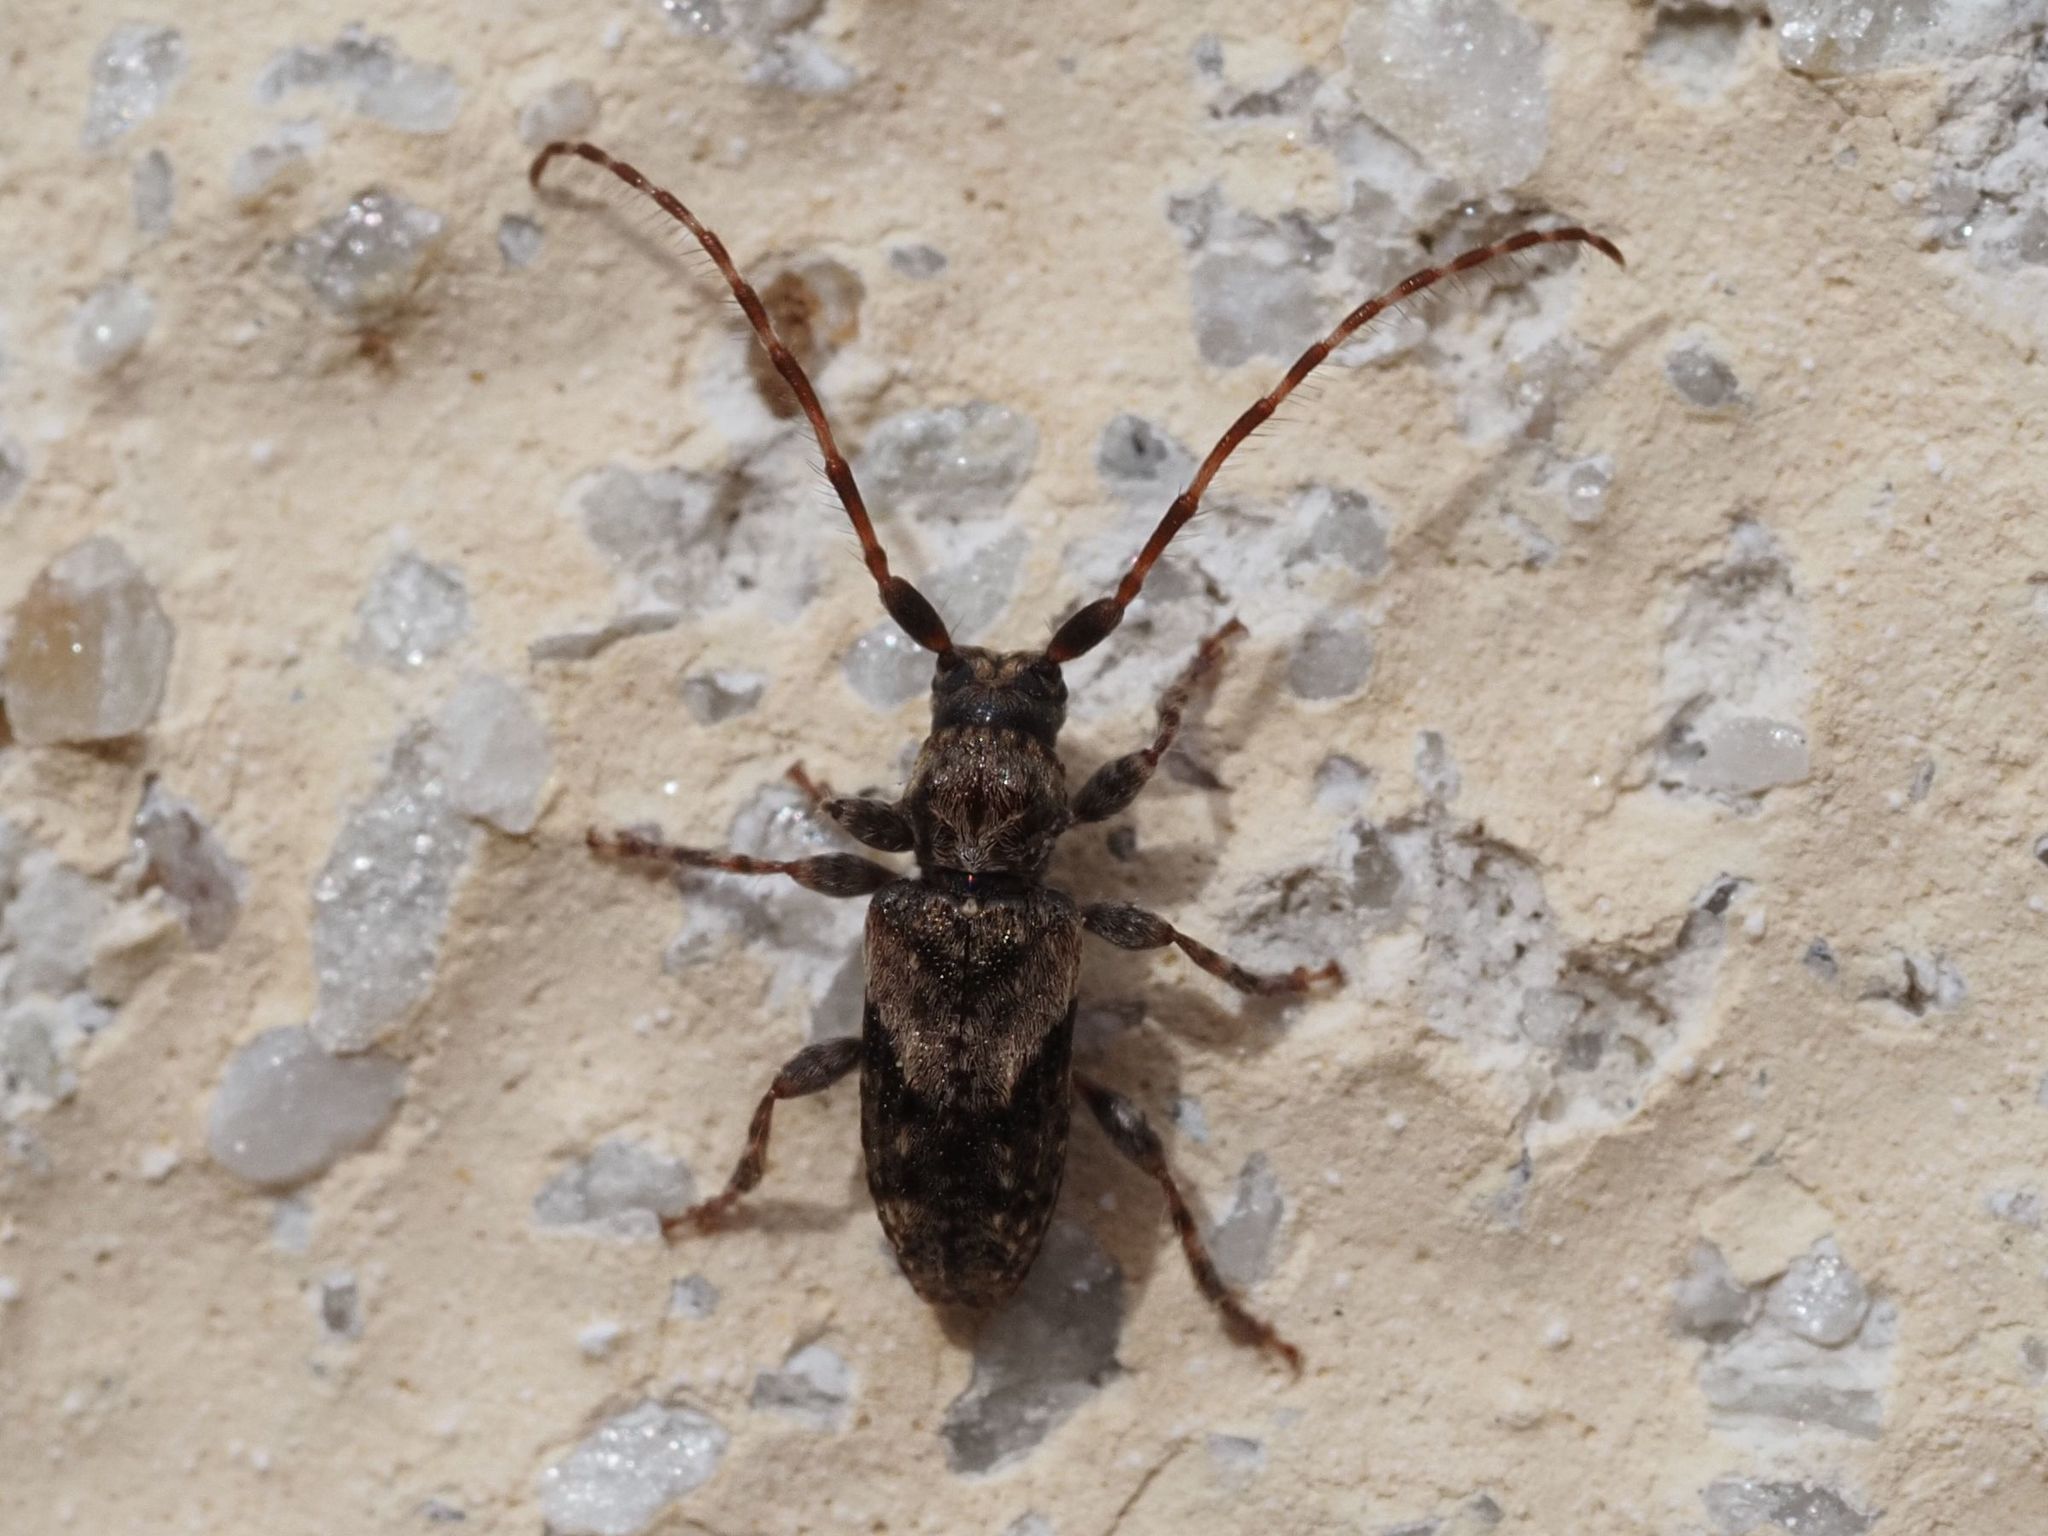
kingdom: Animalia
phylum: Arthropoda
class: Insecta
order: Coleoptera
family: Cerambycidae
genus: Pogonocherus
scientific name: Pogonocherus ovatus
